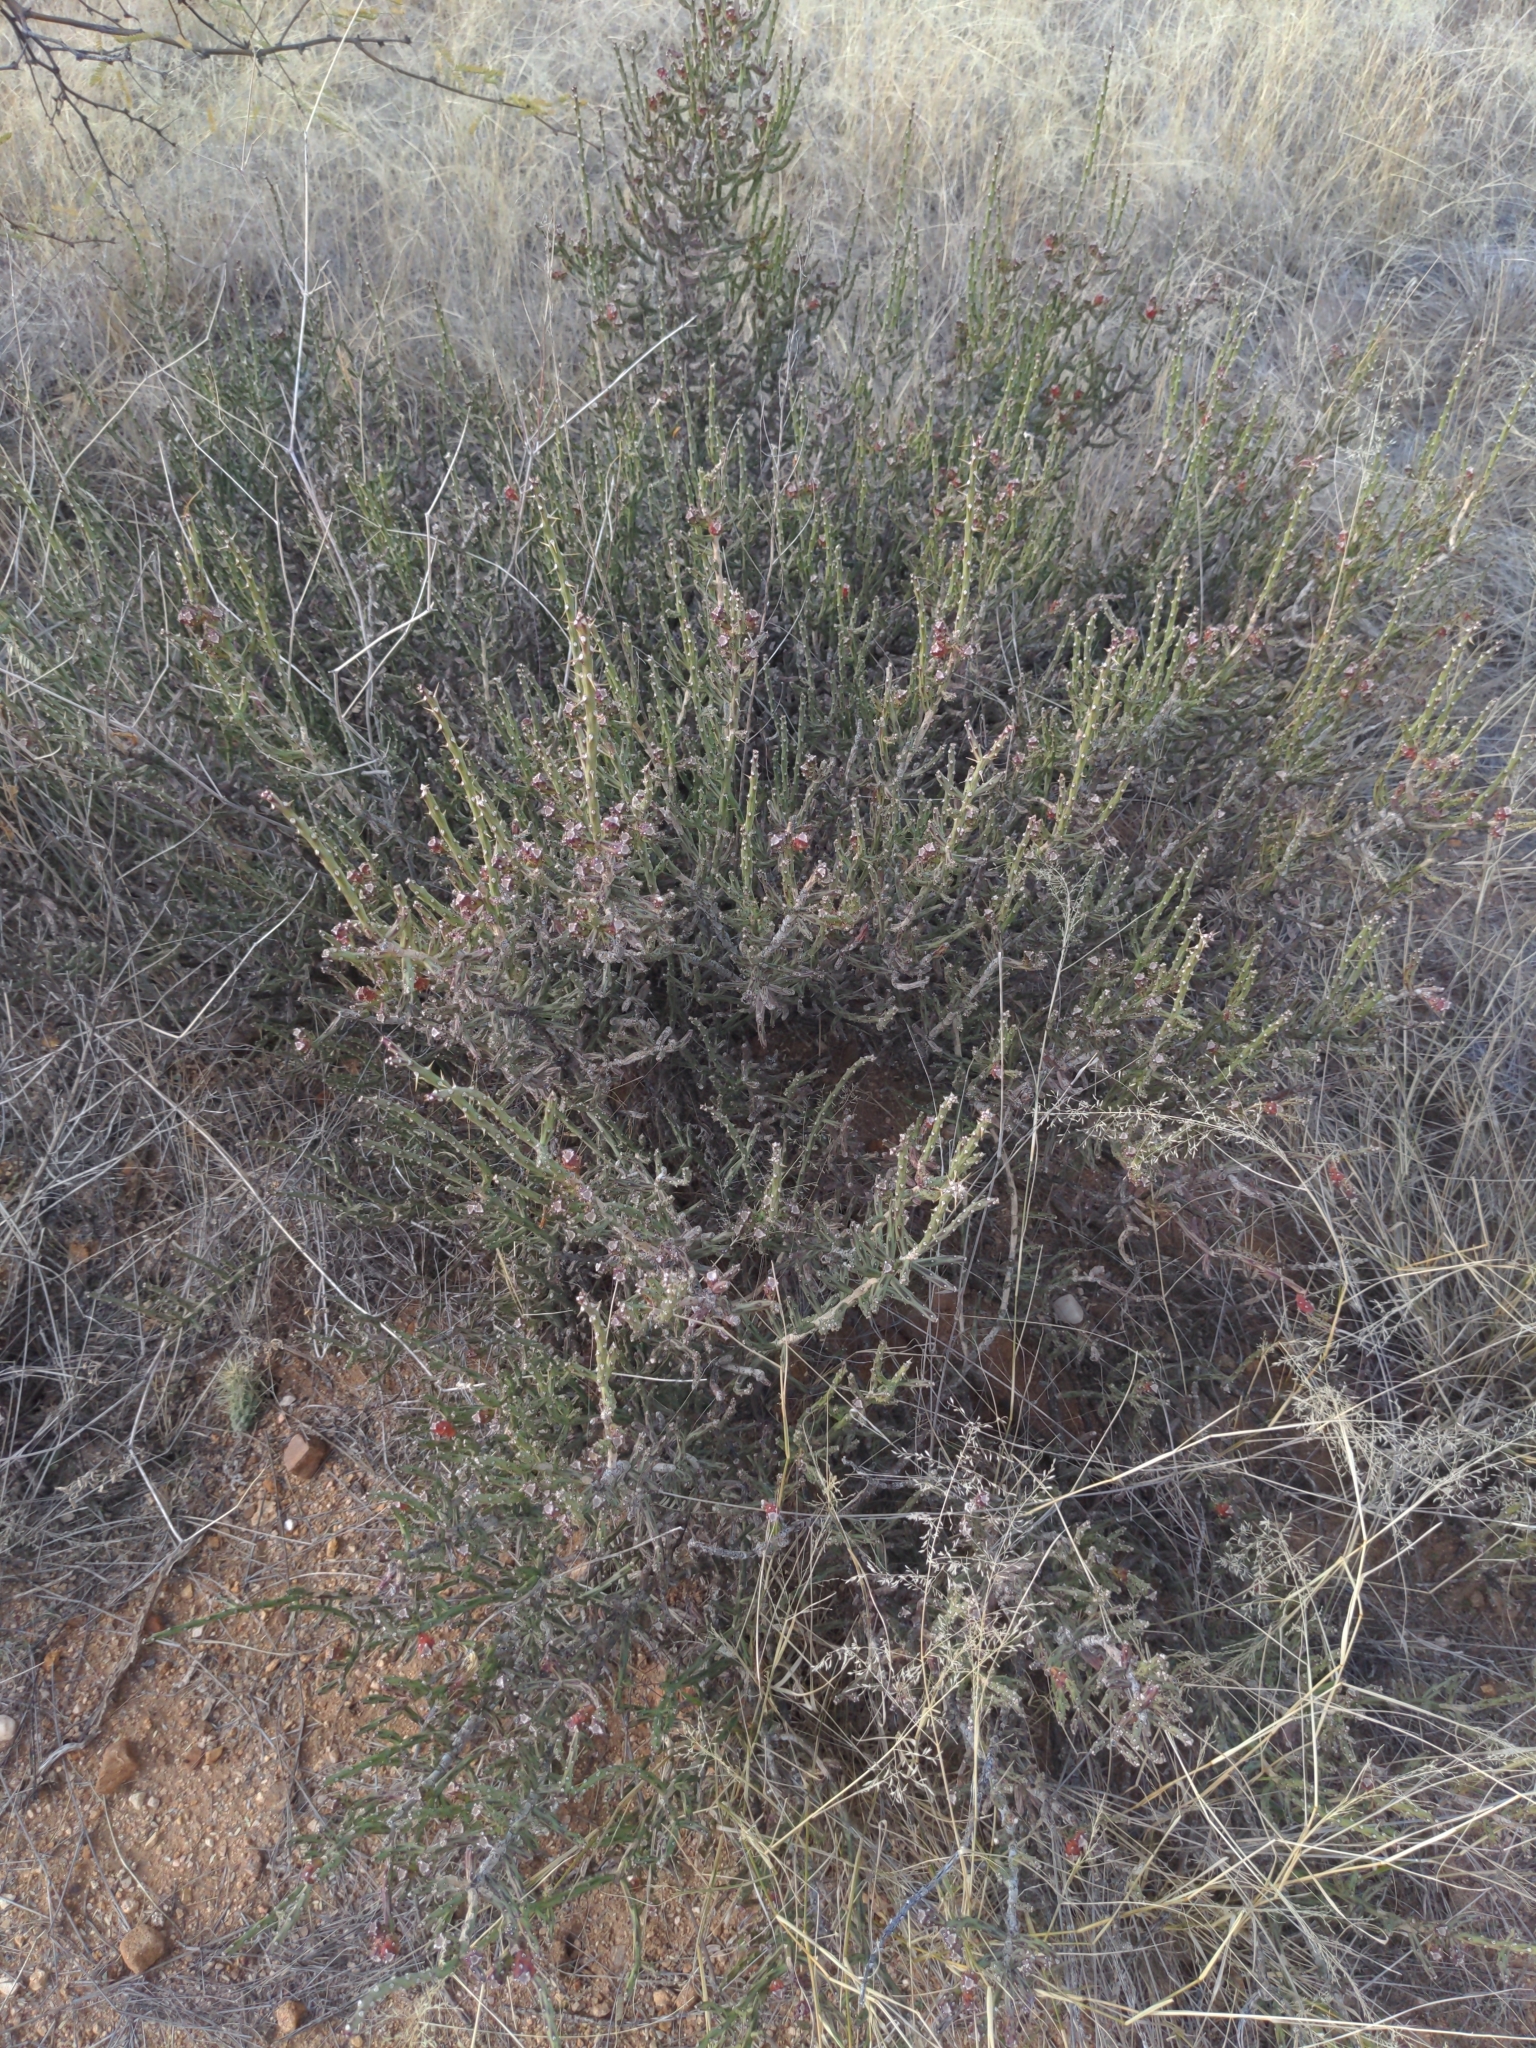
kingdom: Plantae
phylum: Tracheophyta
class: Magnoliopsida
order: Caryophyllales
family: Cactaceae
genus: Cylindropuntia
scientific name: Cylindropuntia leptocaulis
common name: Christmas cactus
